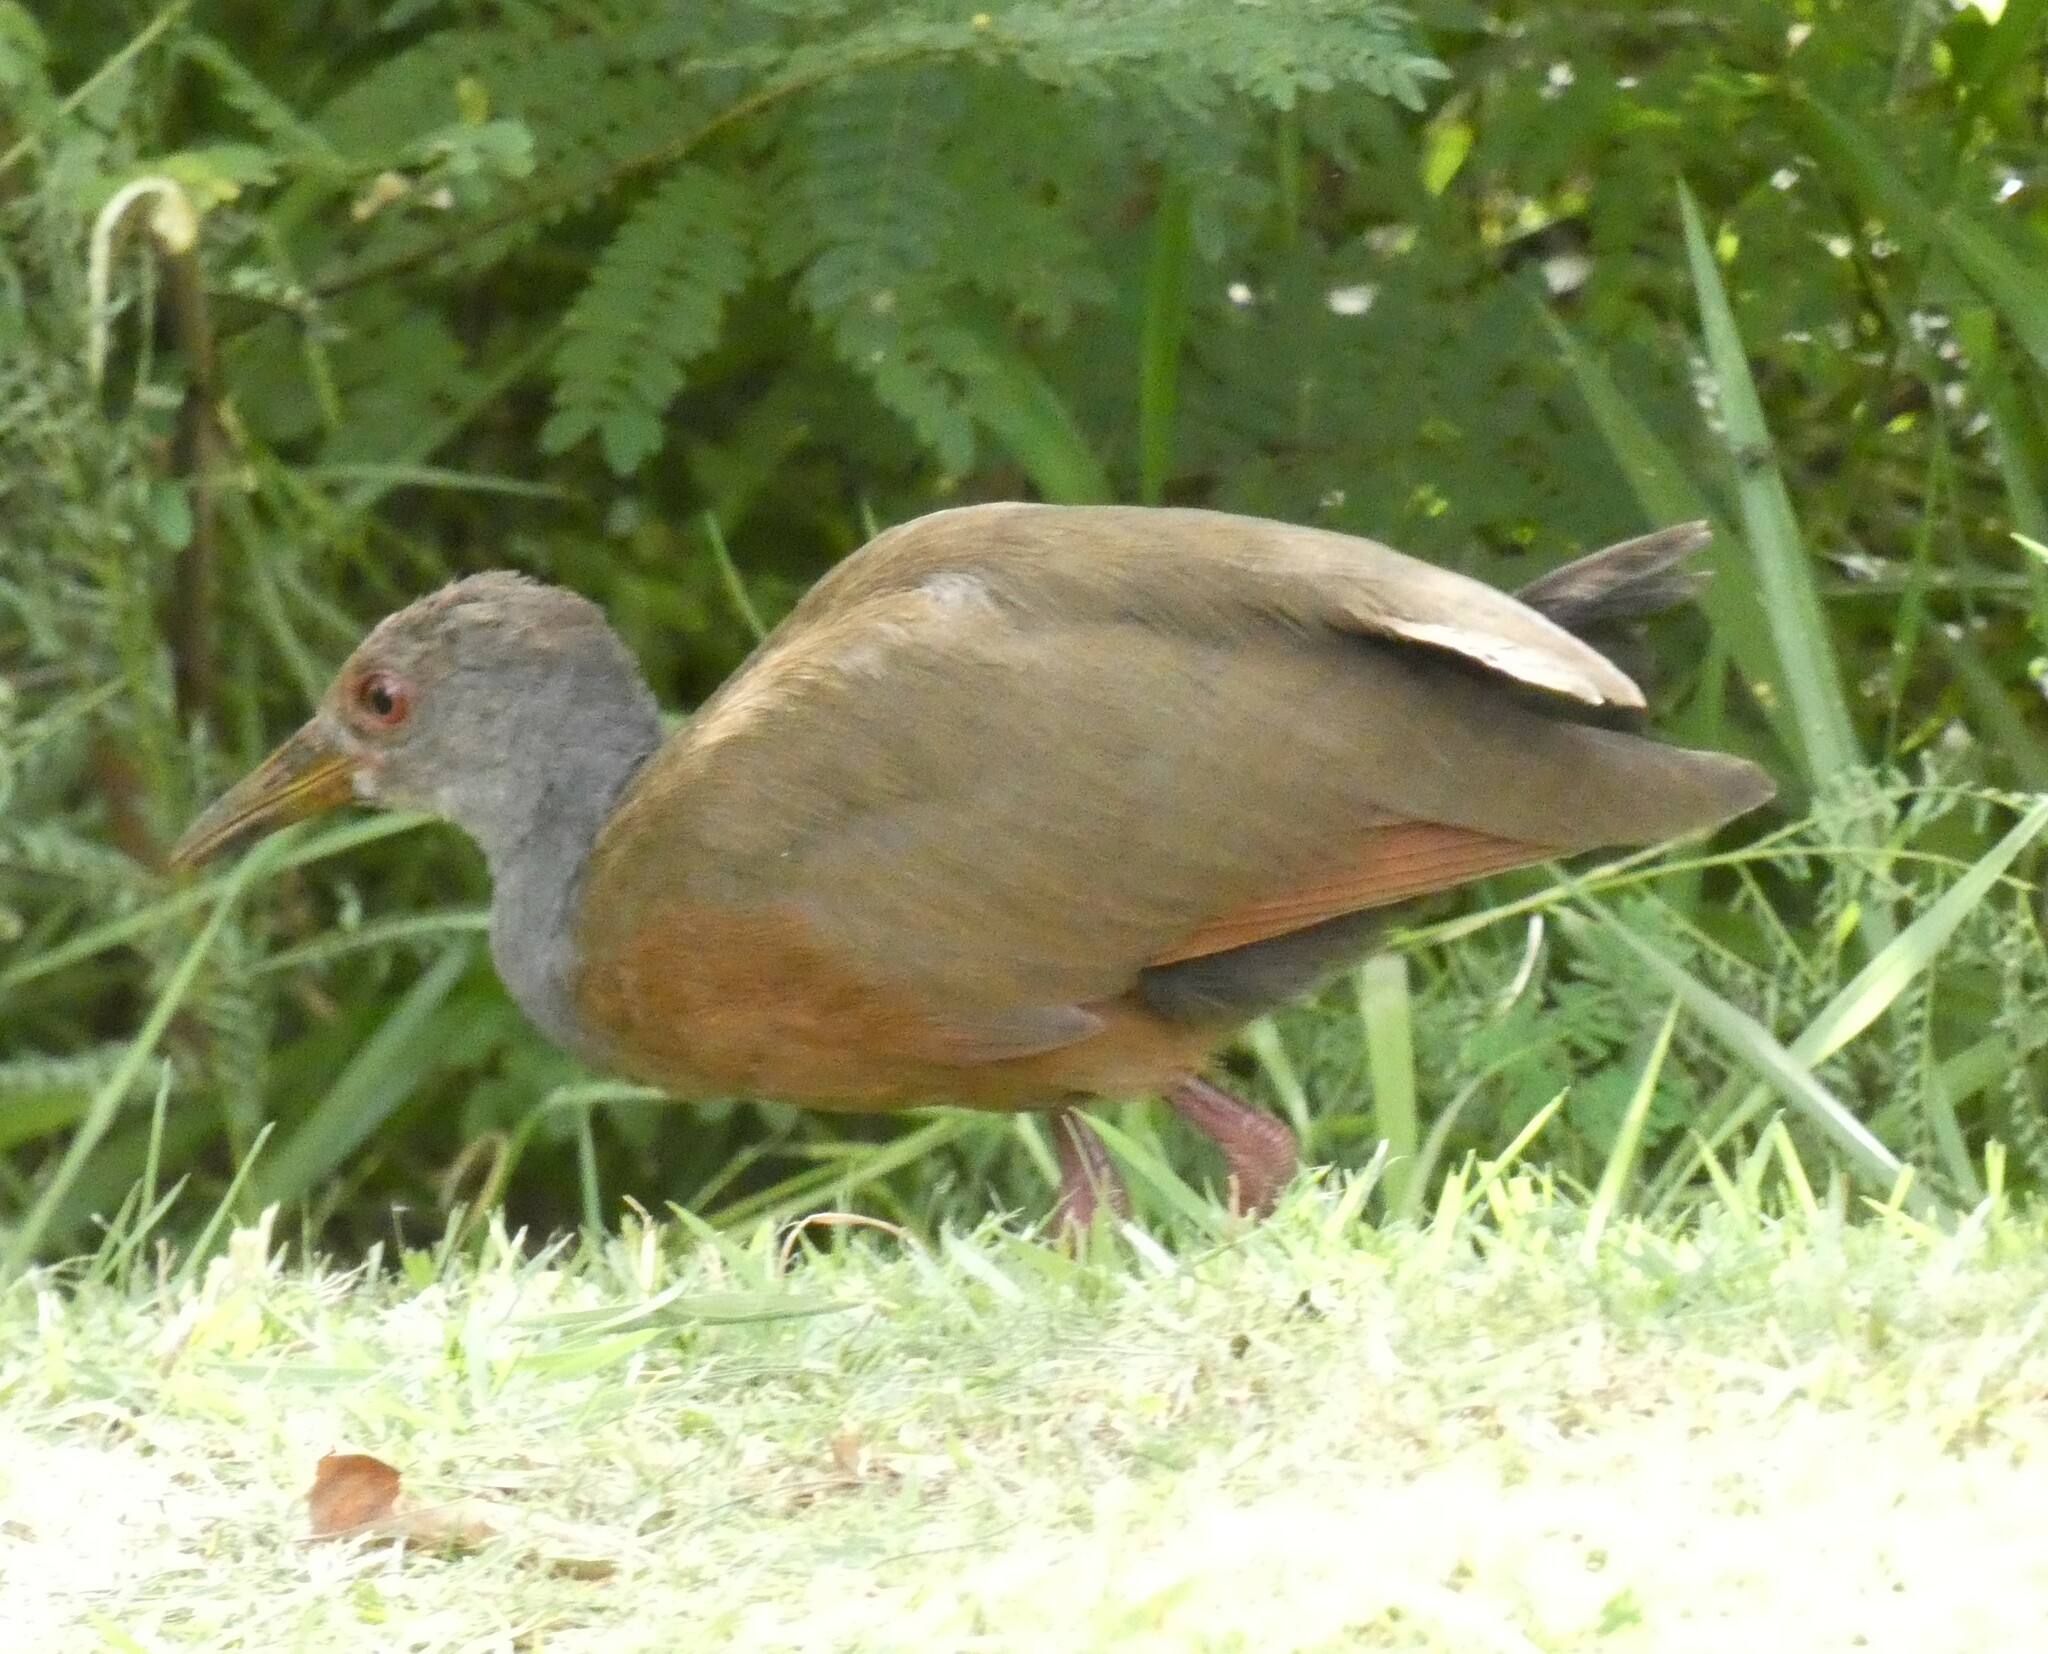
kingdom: Animalia
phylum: Chordata
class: Aves
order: Gruiformes
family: Rallidae
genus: Aramides
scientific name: Aramides cajanea
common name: Gray-necked wood-rail
